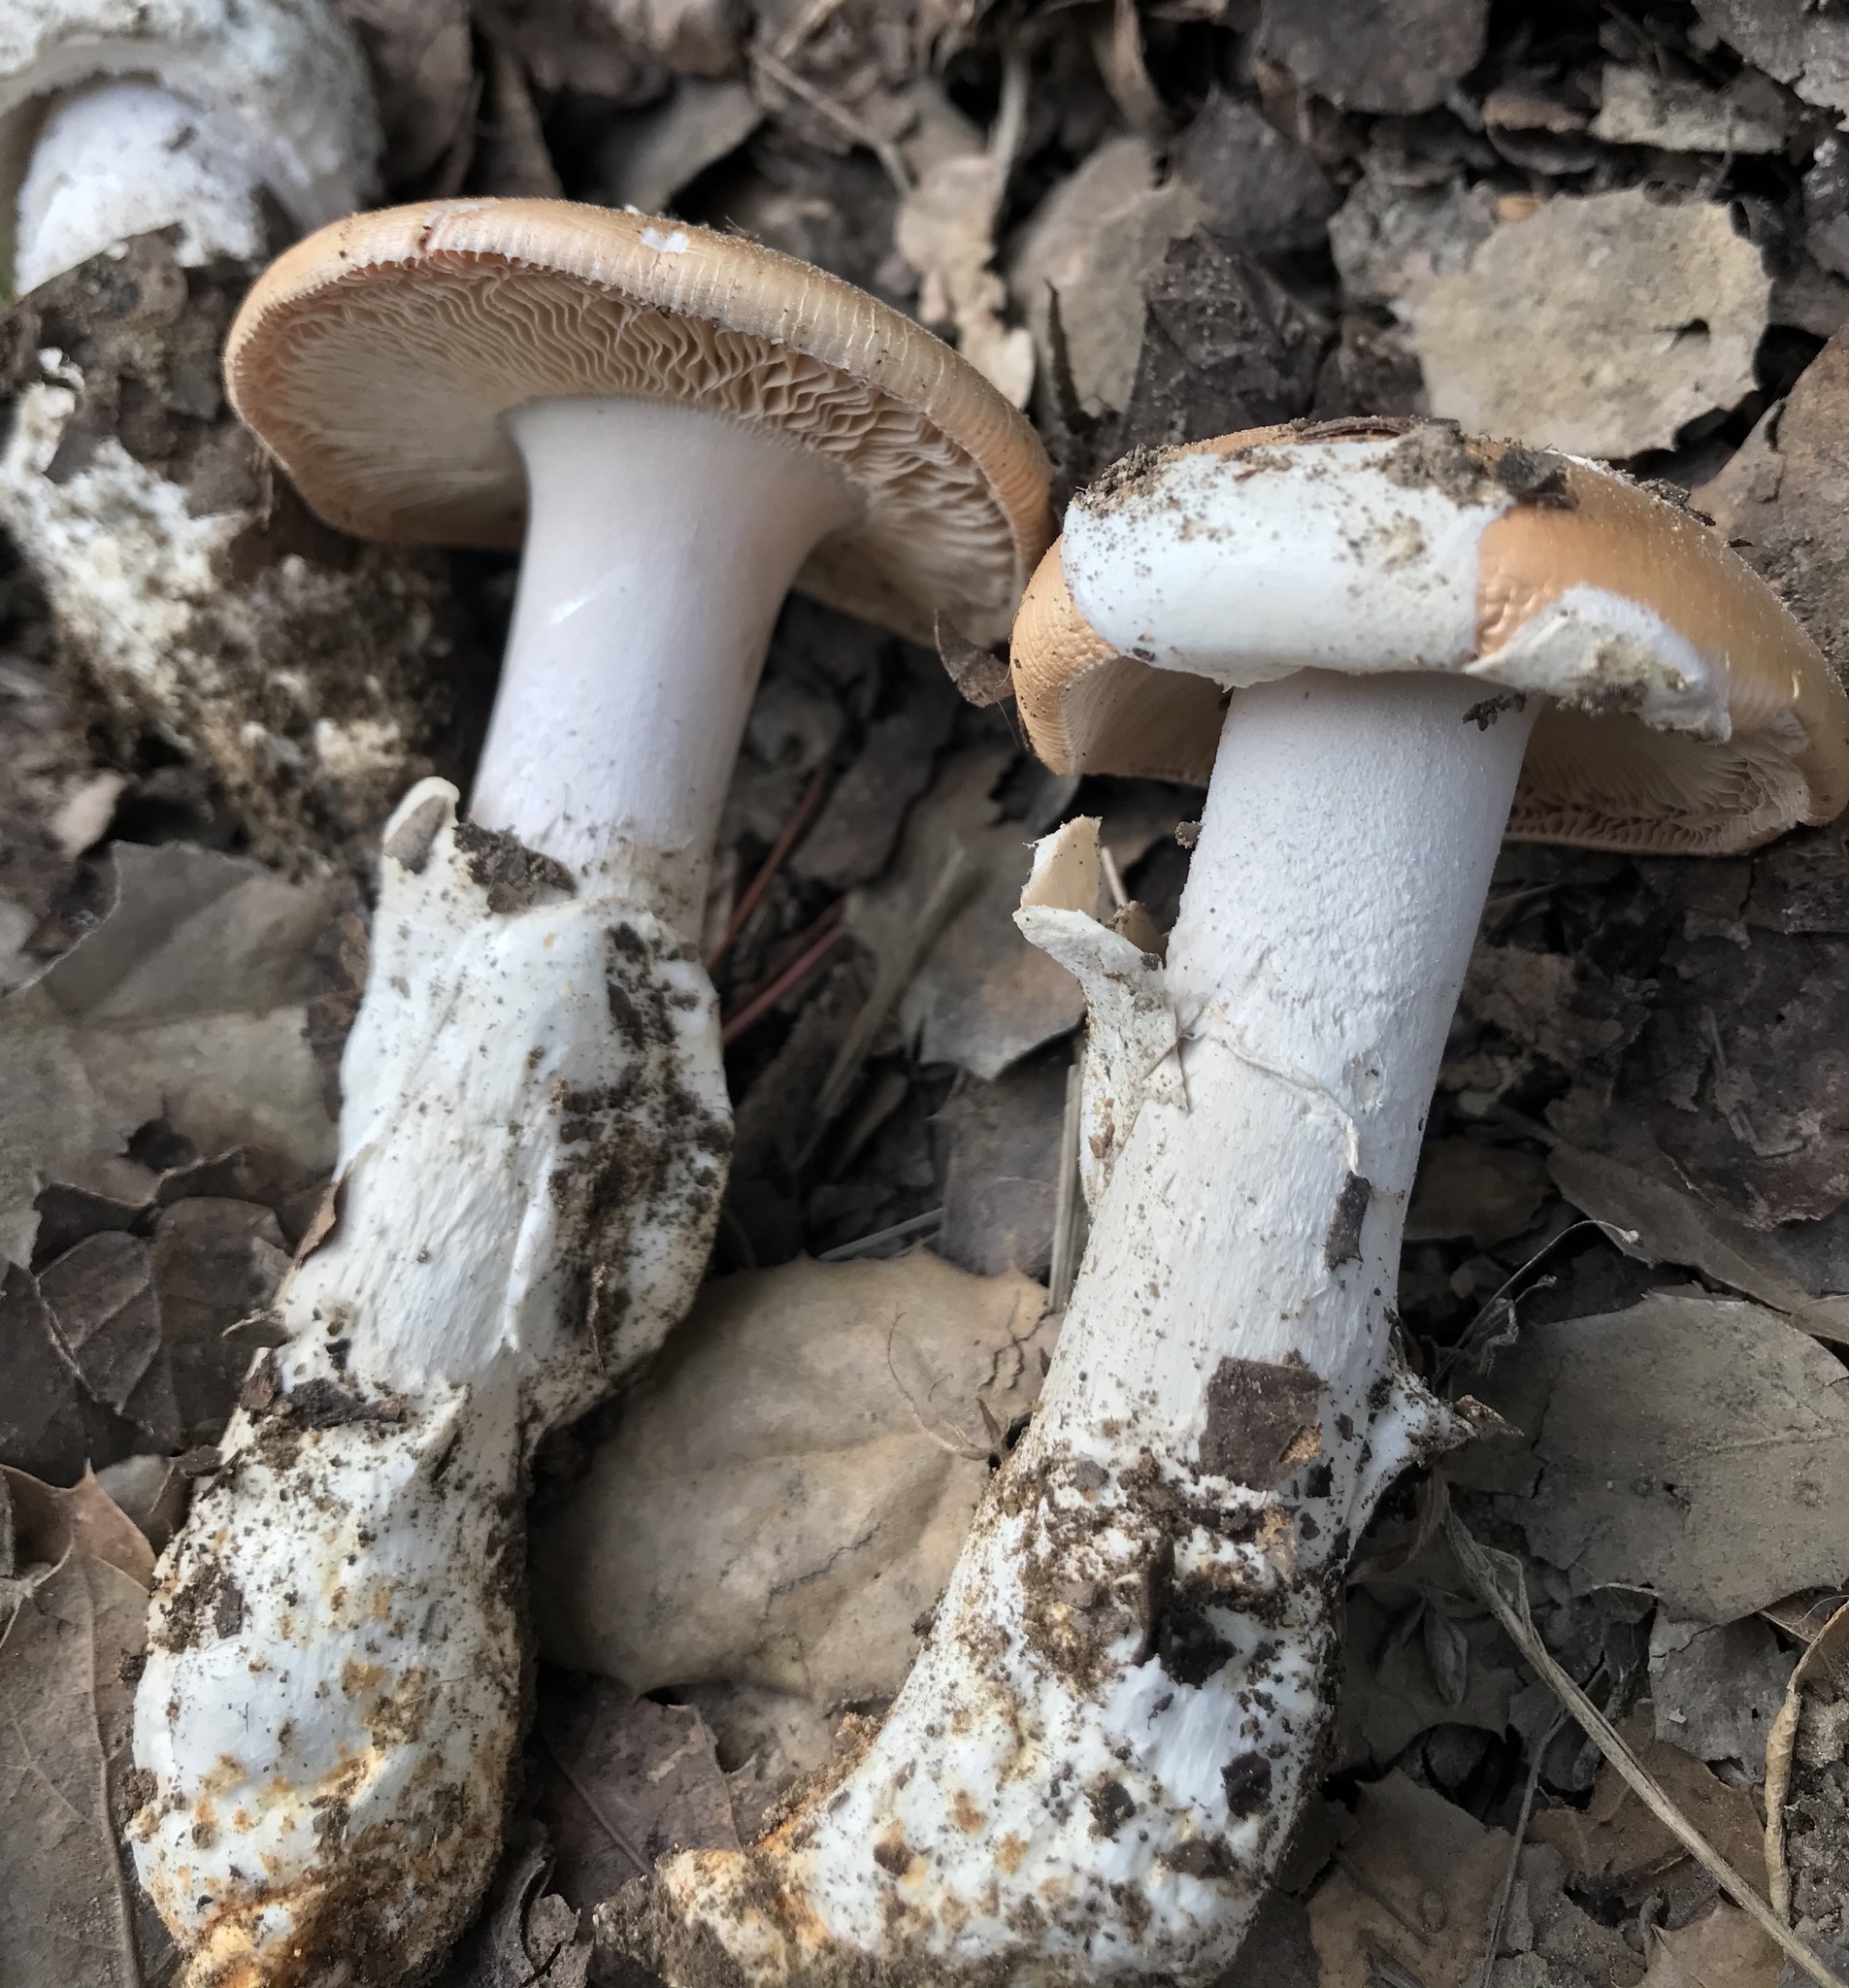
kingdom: Fungi
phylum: Basidiomycota
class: Agaricomycetes
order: Agaricales
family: Amanitaceae
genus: Amanita
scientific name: Amanita velosa
